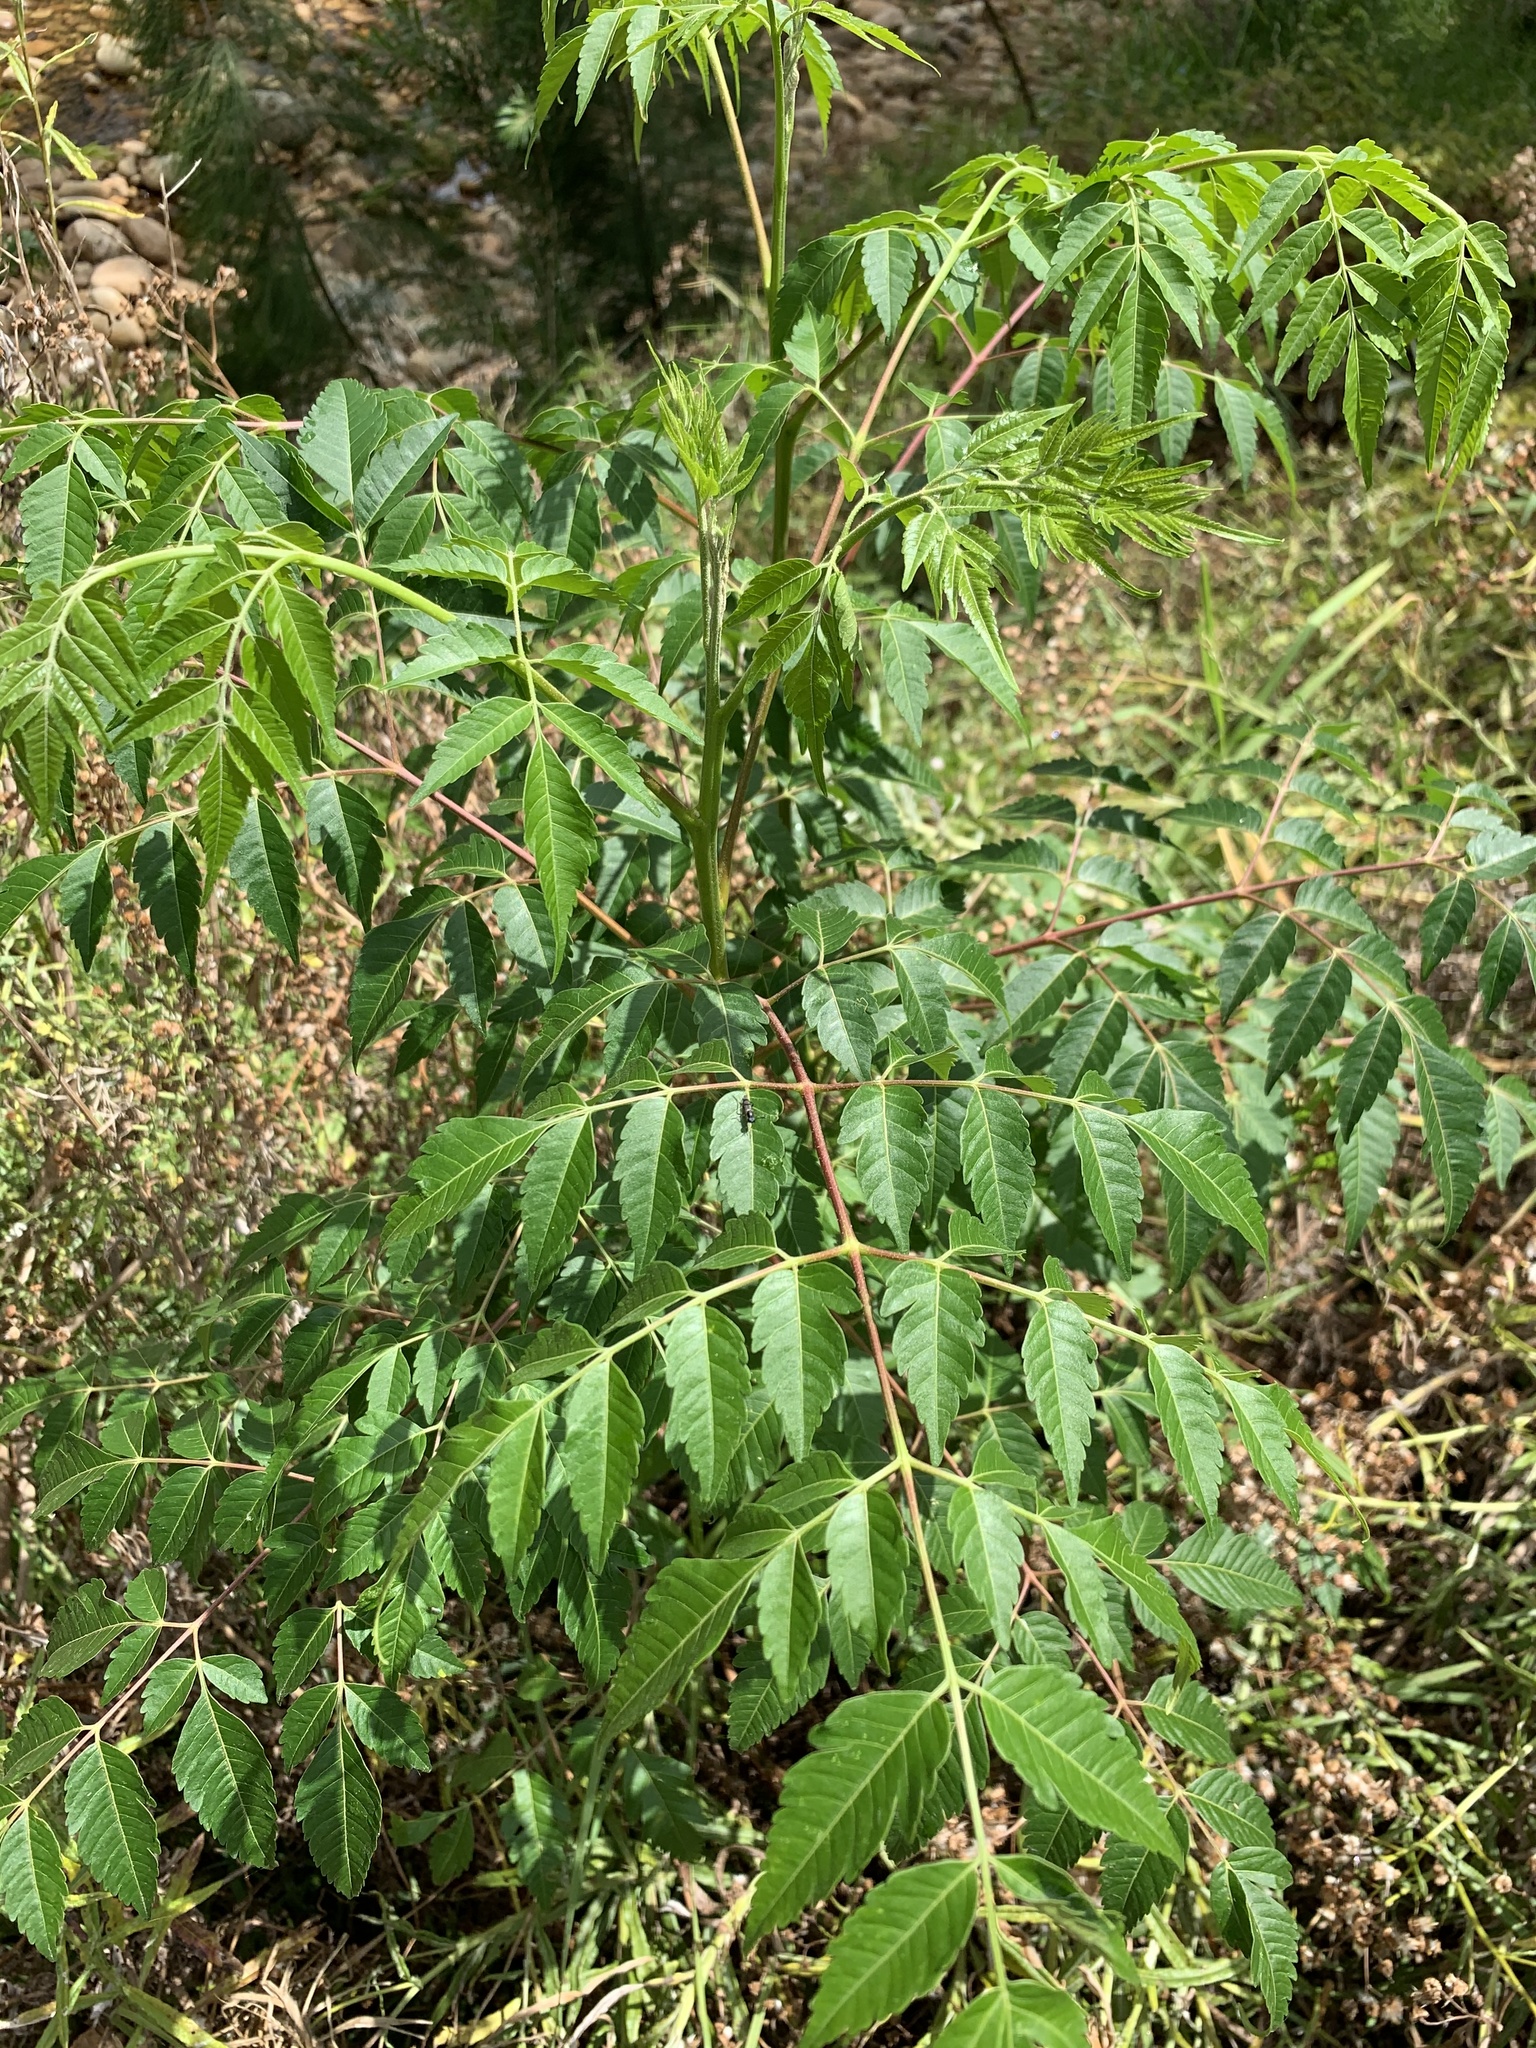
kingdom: Plantae
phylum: Tracheophyta
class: Magnoliopsida
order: Sapindales
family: Meliaceae
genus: Melia
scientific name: Melia azedarach
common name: Chinaberrytree
